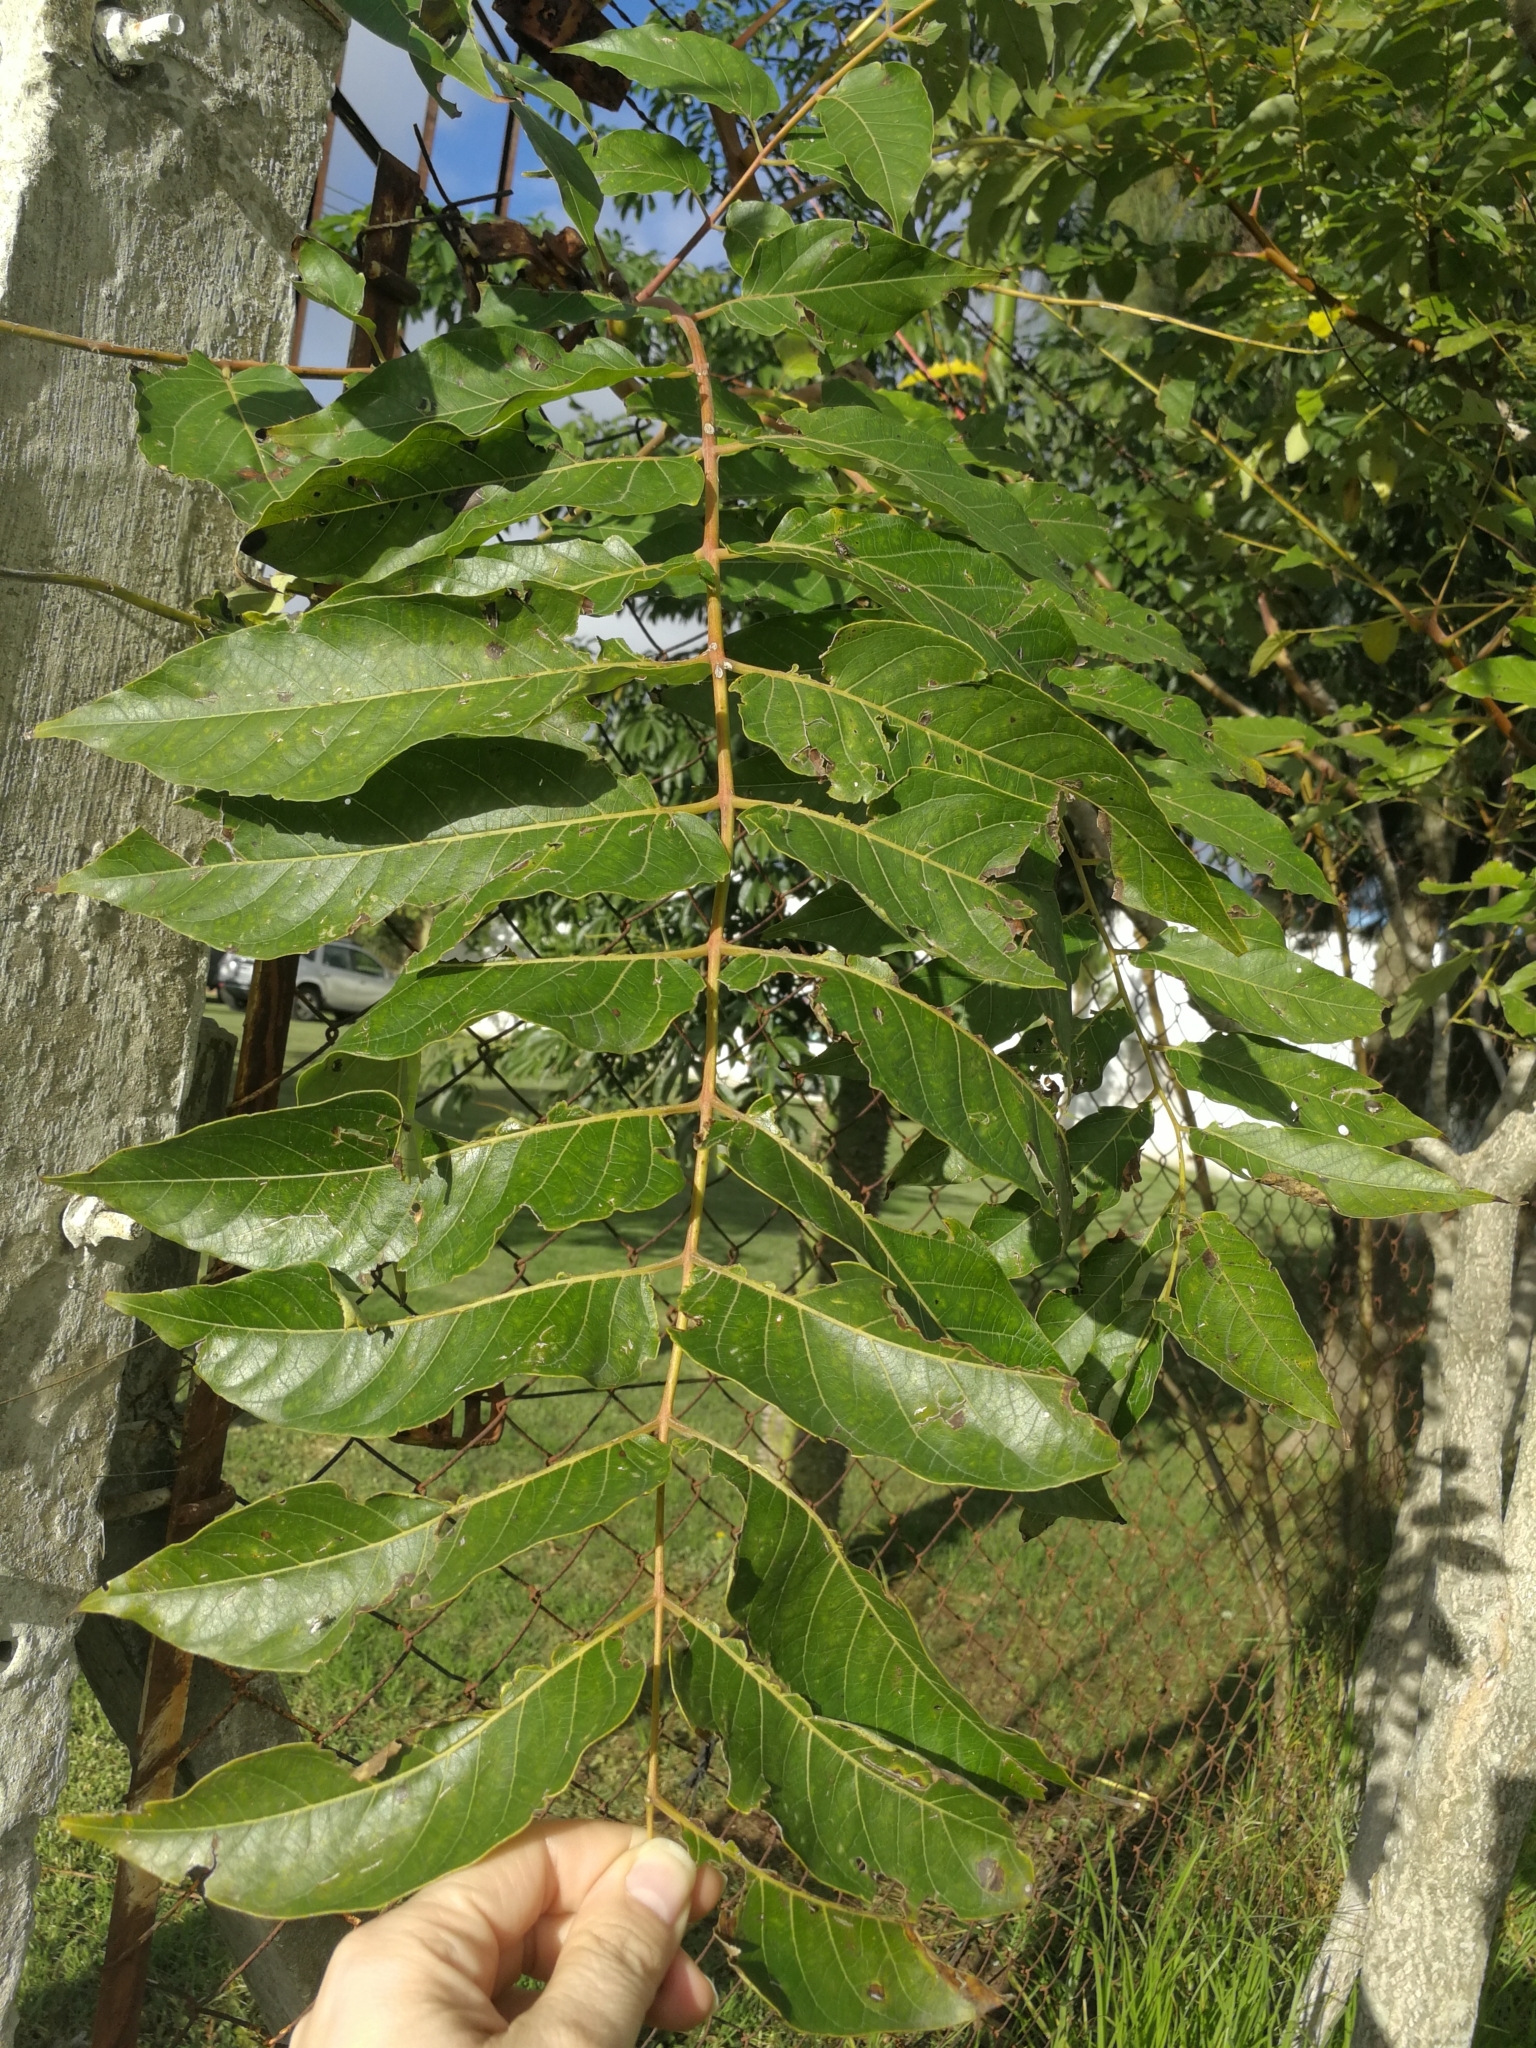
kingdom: Plantae
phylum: Tracheophyta
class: Magnoliopsida
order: Sapindales
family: Simaroubaceae
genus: Ailanthus
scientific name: Ailanthus altissima
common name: Tree-of-heaven
